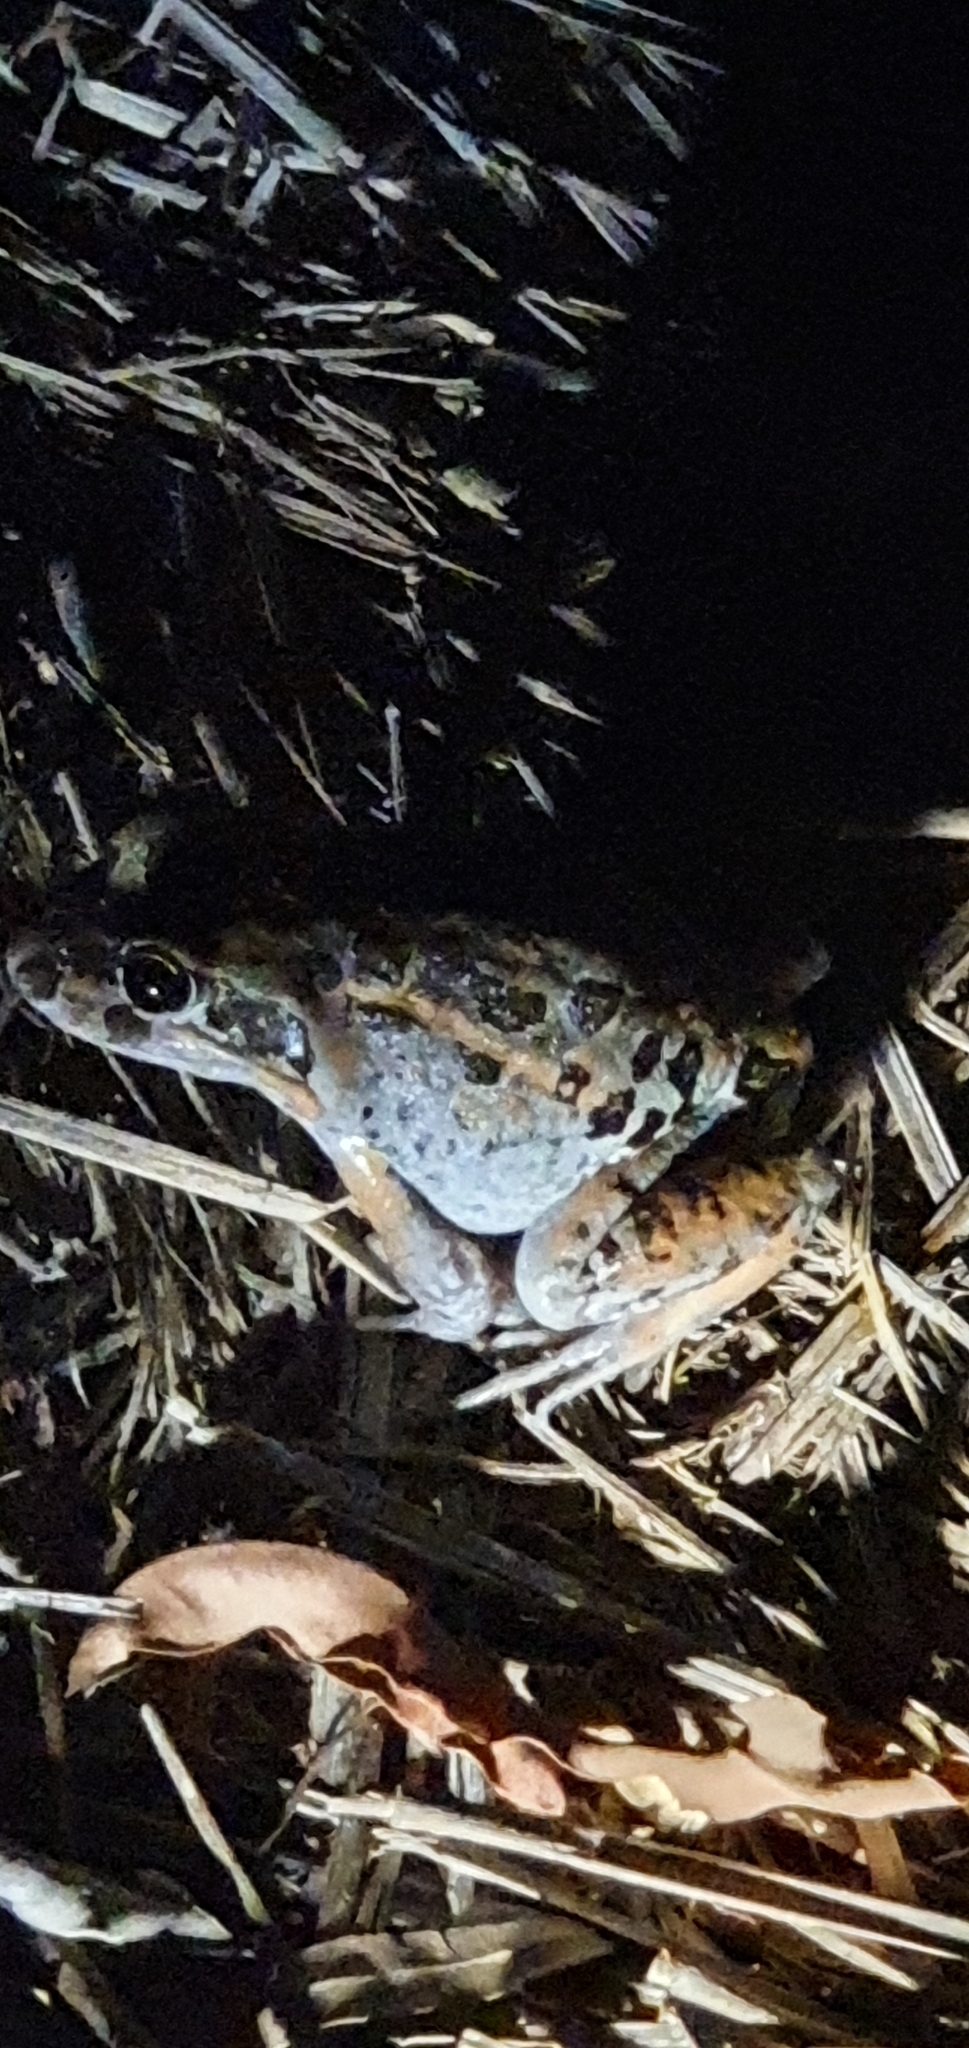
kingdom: Animalia
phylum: Chordata
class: Amphibia
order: Anura
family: Limnodynastidae
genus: Limnodynastes
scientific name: Limnodynastes salmini
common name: Salmon-striped frog
